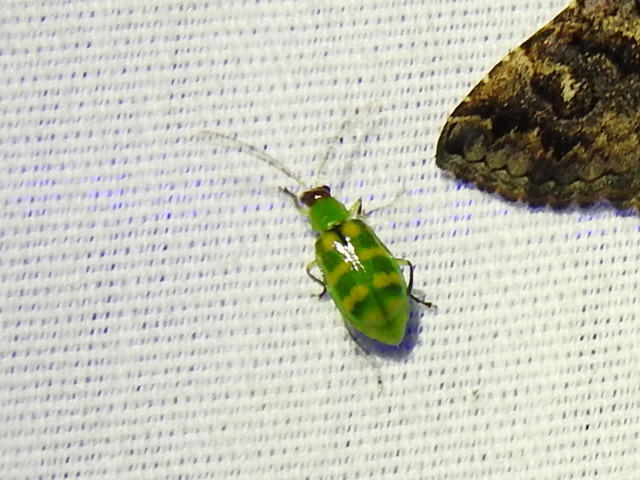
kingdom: Animalia
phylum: Arthropoda
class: Insecta
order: Coleoptera
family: Chrysomelidae
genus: Diabrotica
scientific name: Diabrotica balteata
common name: Leaf beetle
